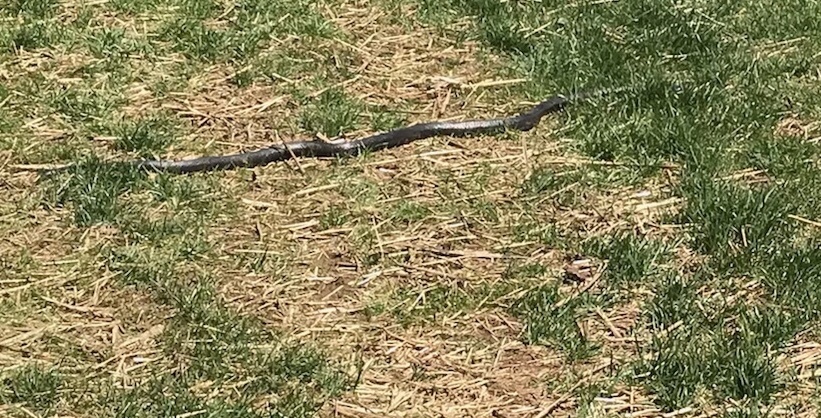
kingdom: Animalia
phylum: Chordata
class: Squamata
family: Colubridae
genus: Pantherophis
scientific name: Pantherophis alleghaniensis
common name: Eastern rat snake
